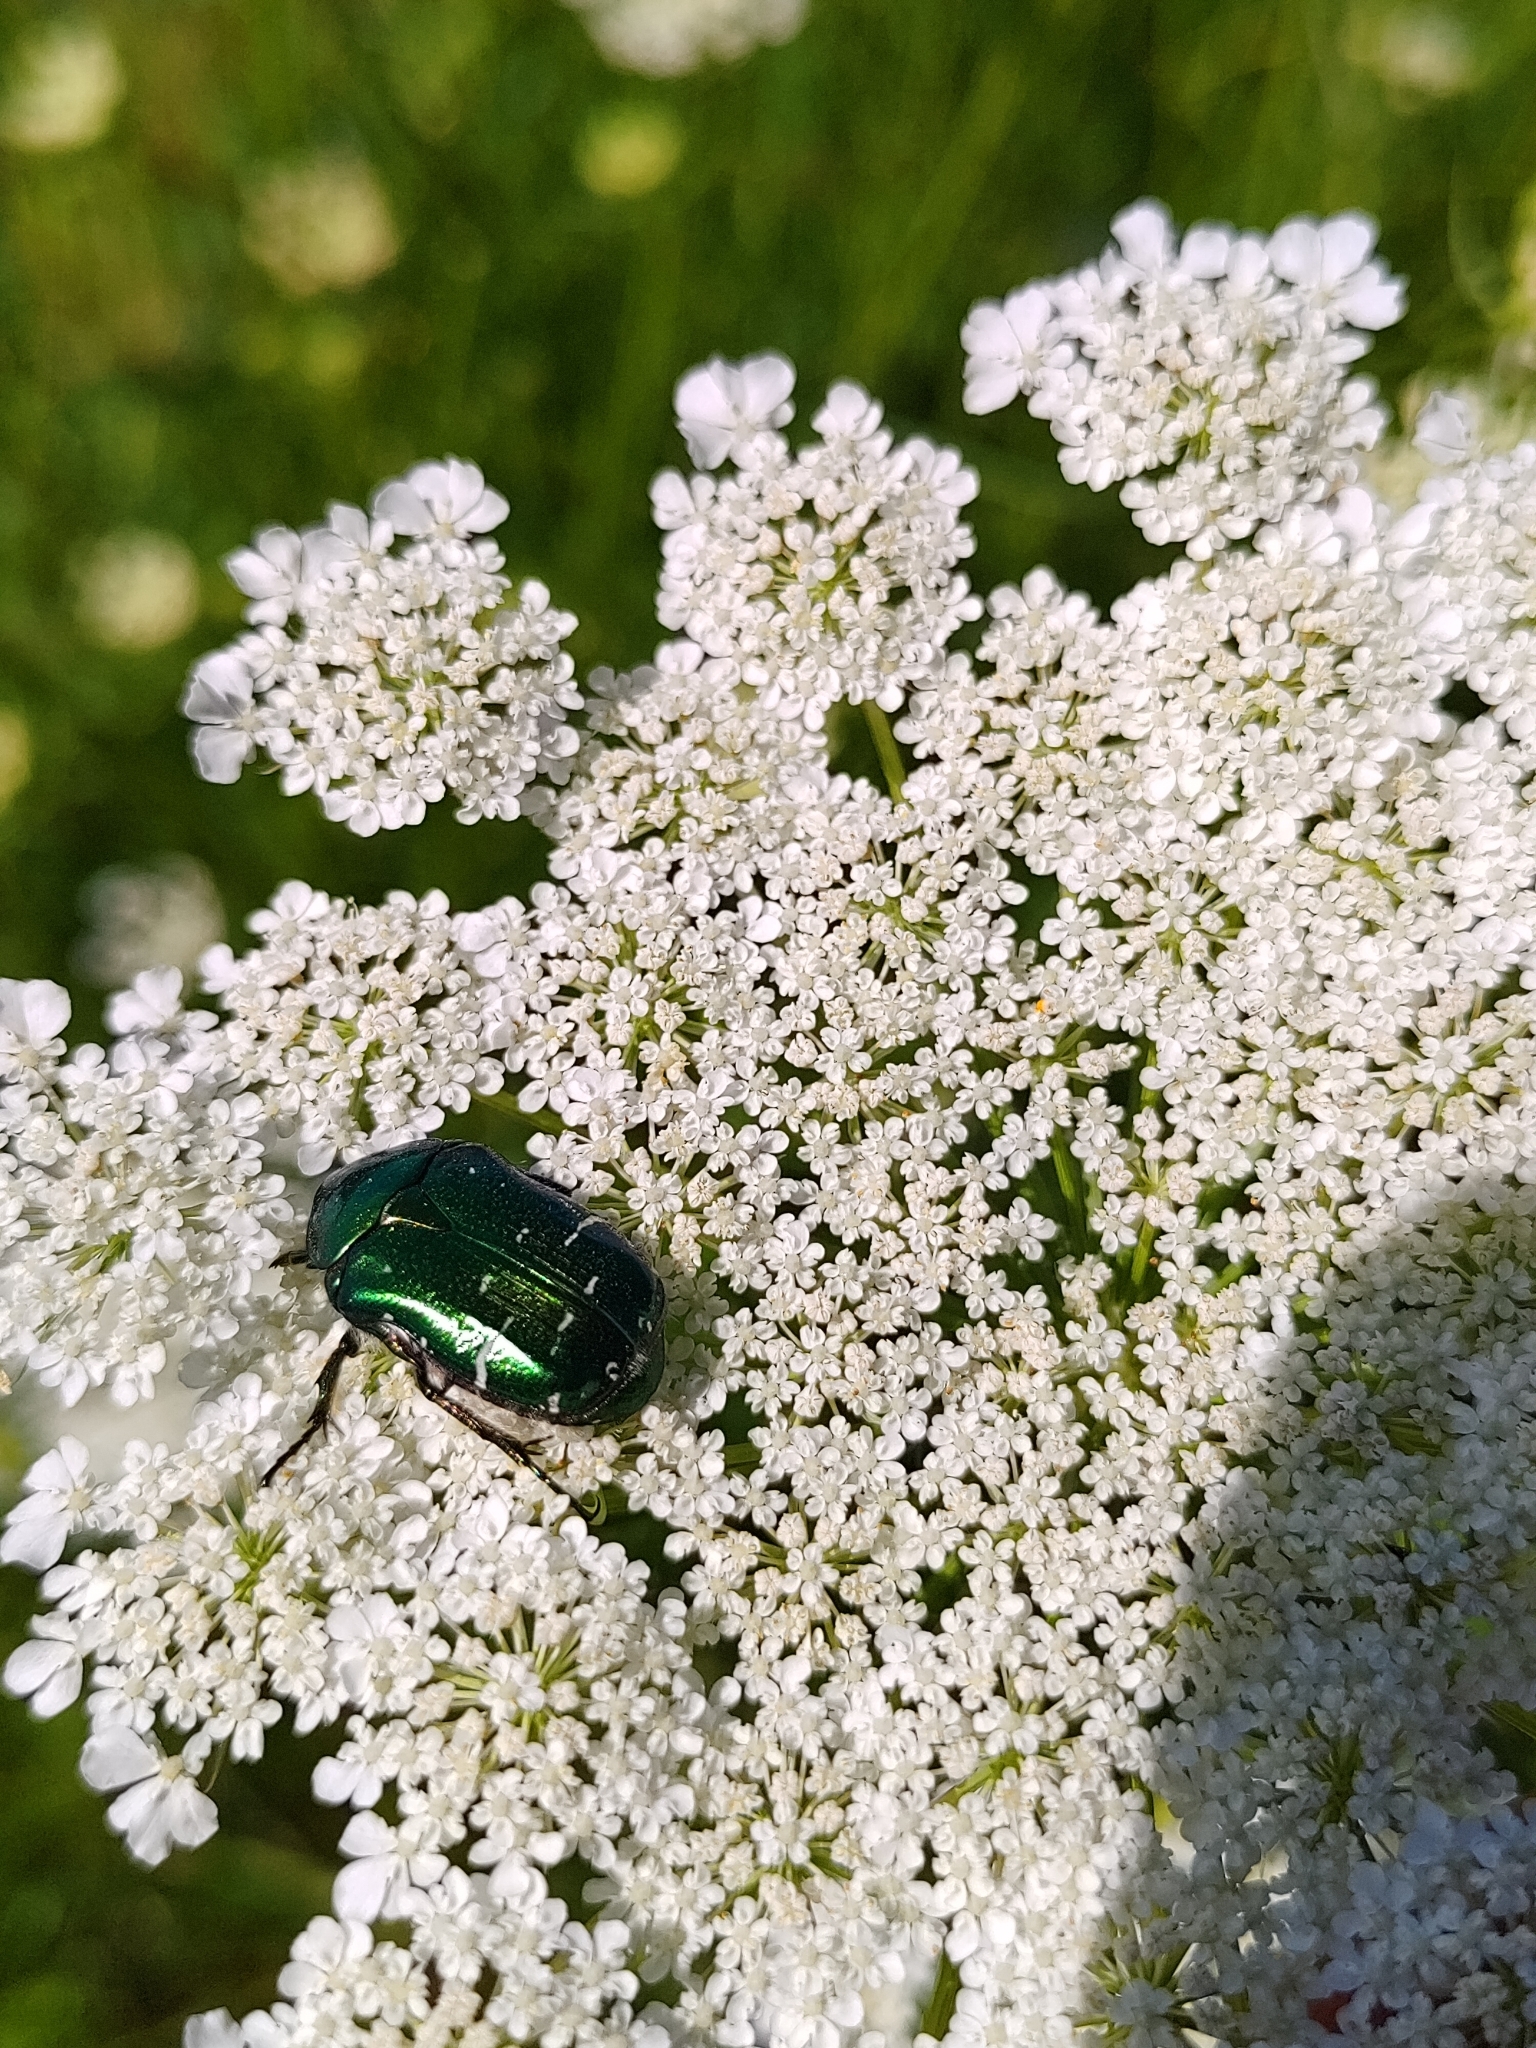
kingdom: Animalia
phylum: Arthropoda
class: Insecta
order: Coleoptera
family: Scarabaeidae
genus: Cetonia
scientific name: Cetonia aurata
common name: Rose chafer
